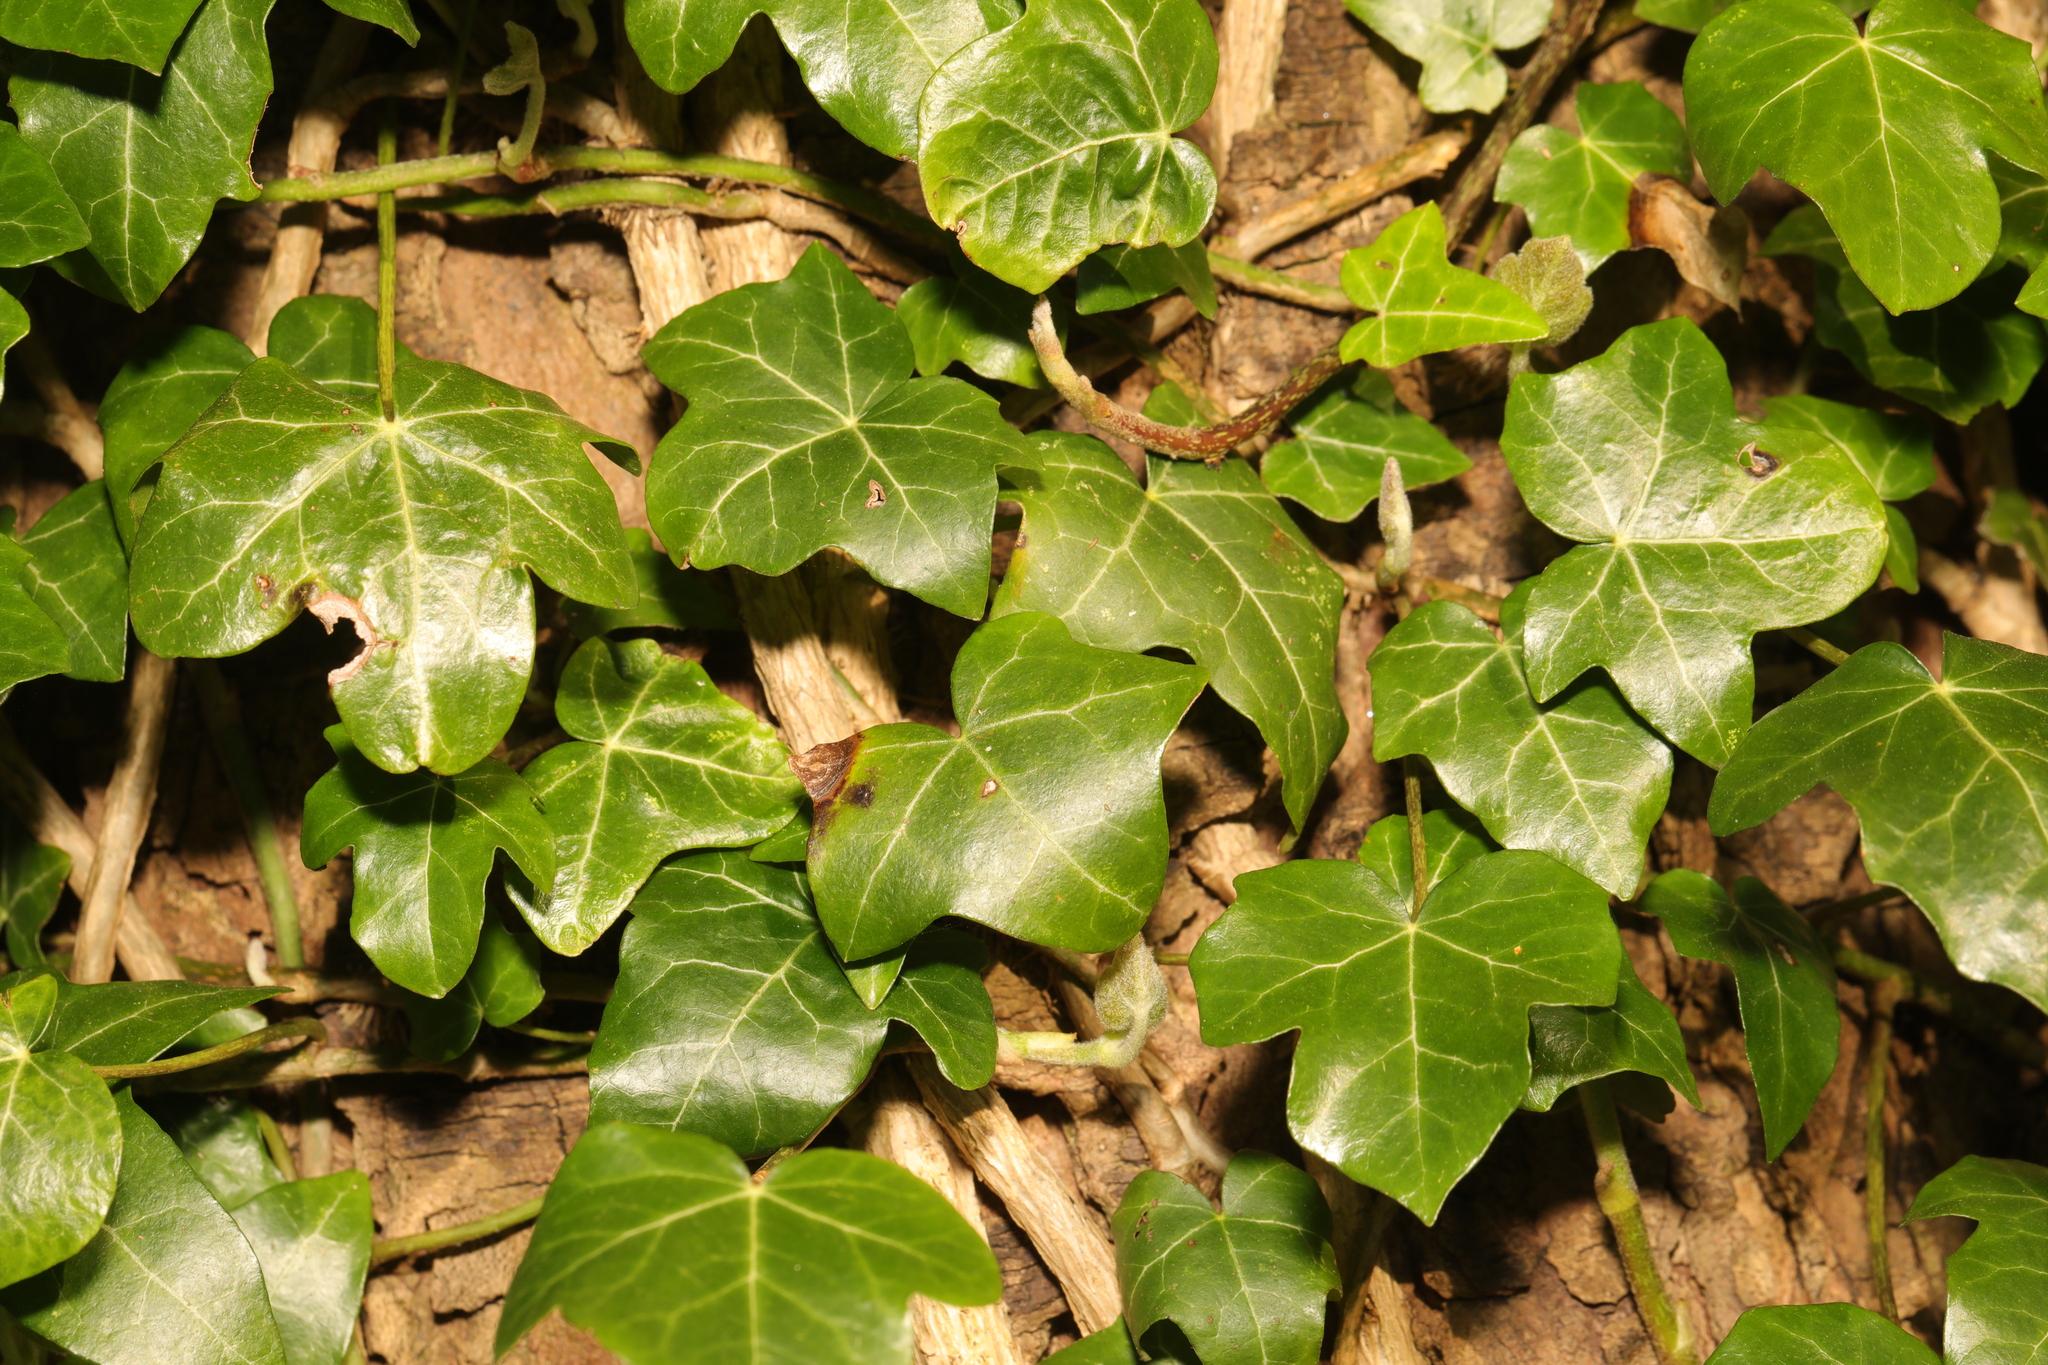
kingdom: Plantae
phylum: Tracheophyta
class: Magnoliopsida
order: Apiales
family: Araliaceae
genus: Hedera
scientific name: Hedera helix
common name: Ivy
